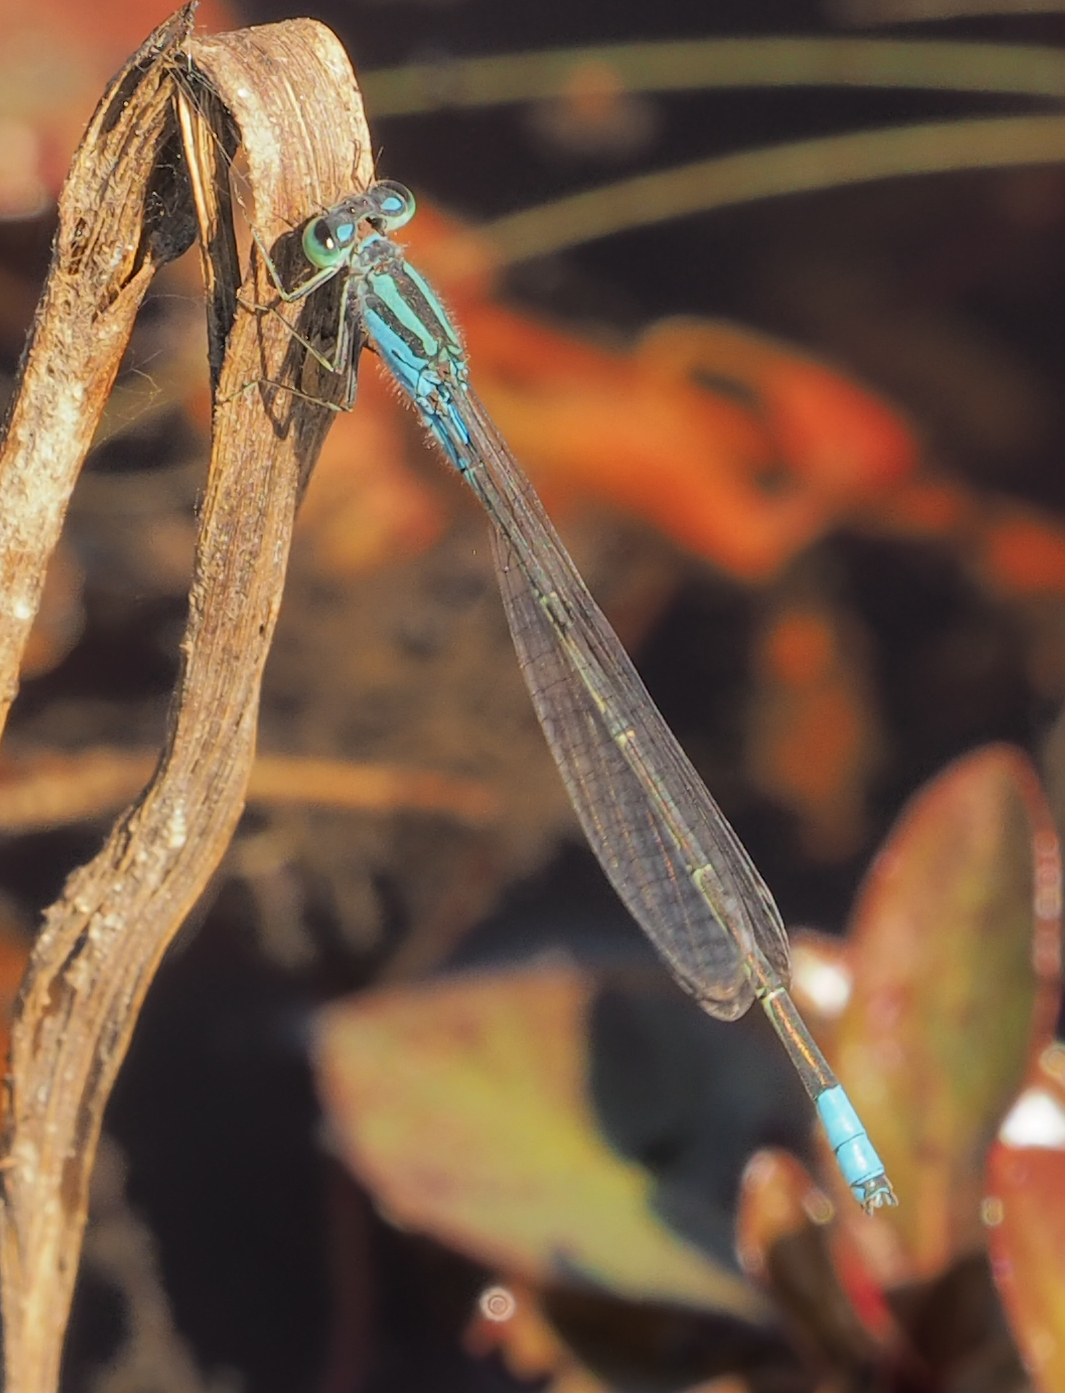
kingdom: Animalia
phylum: Arthropoda
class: Insecta
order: Odonata
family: Coenagrionidae
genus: Pseudagrion
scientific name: Pseudagrion coeleste
